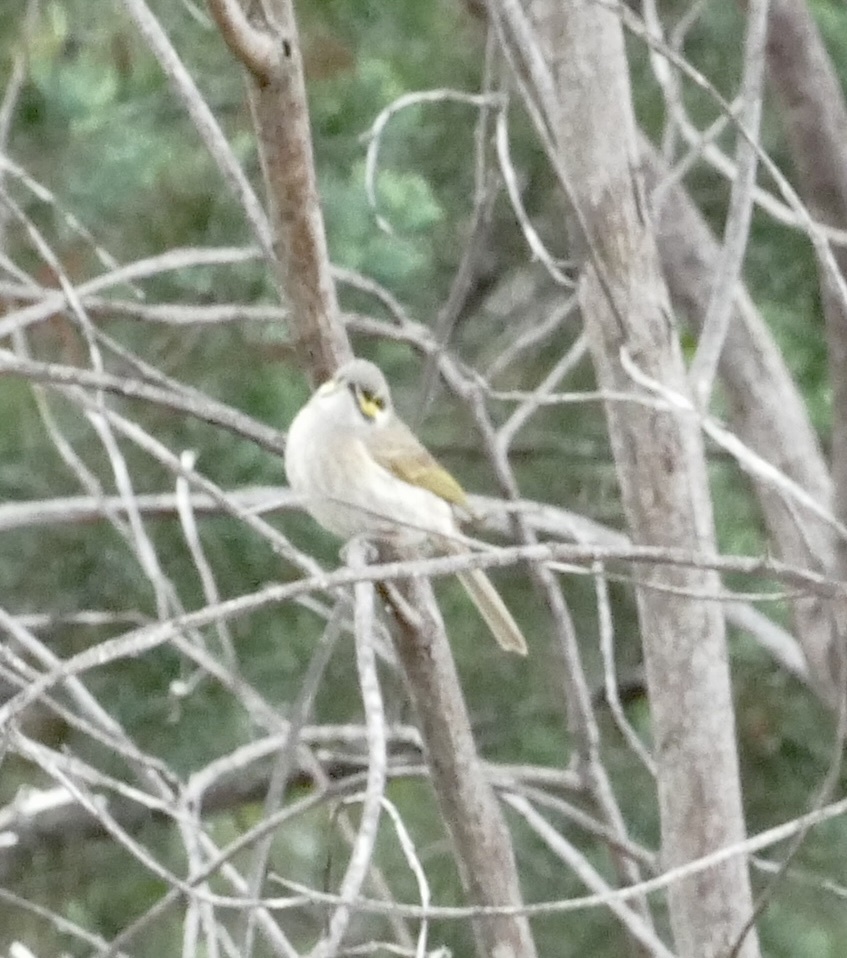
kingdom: Animalia
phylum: Chordata
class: Aves
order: Passeriformes
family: Meliphagidae
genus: Caligavis
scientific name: Caligavis chrysops
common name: Yellow-faced honeyeater
